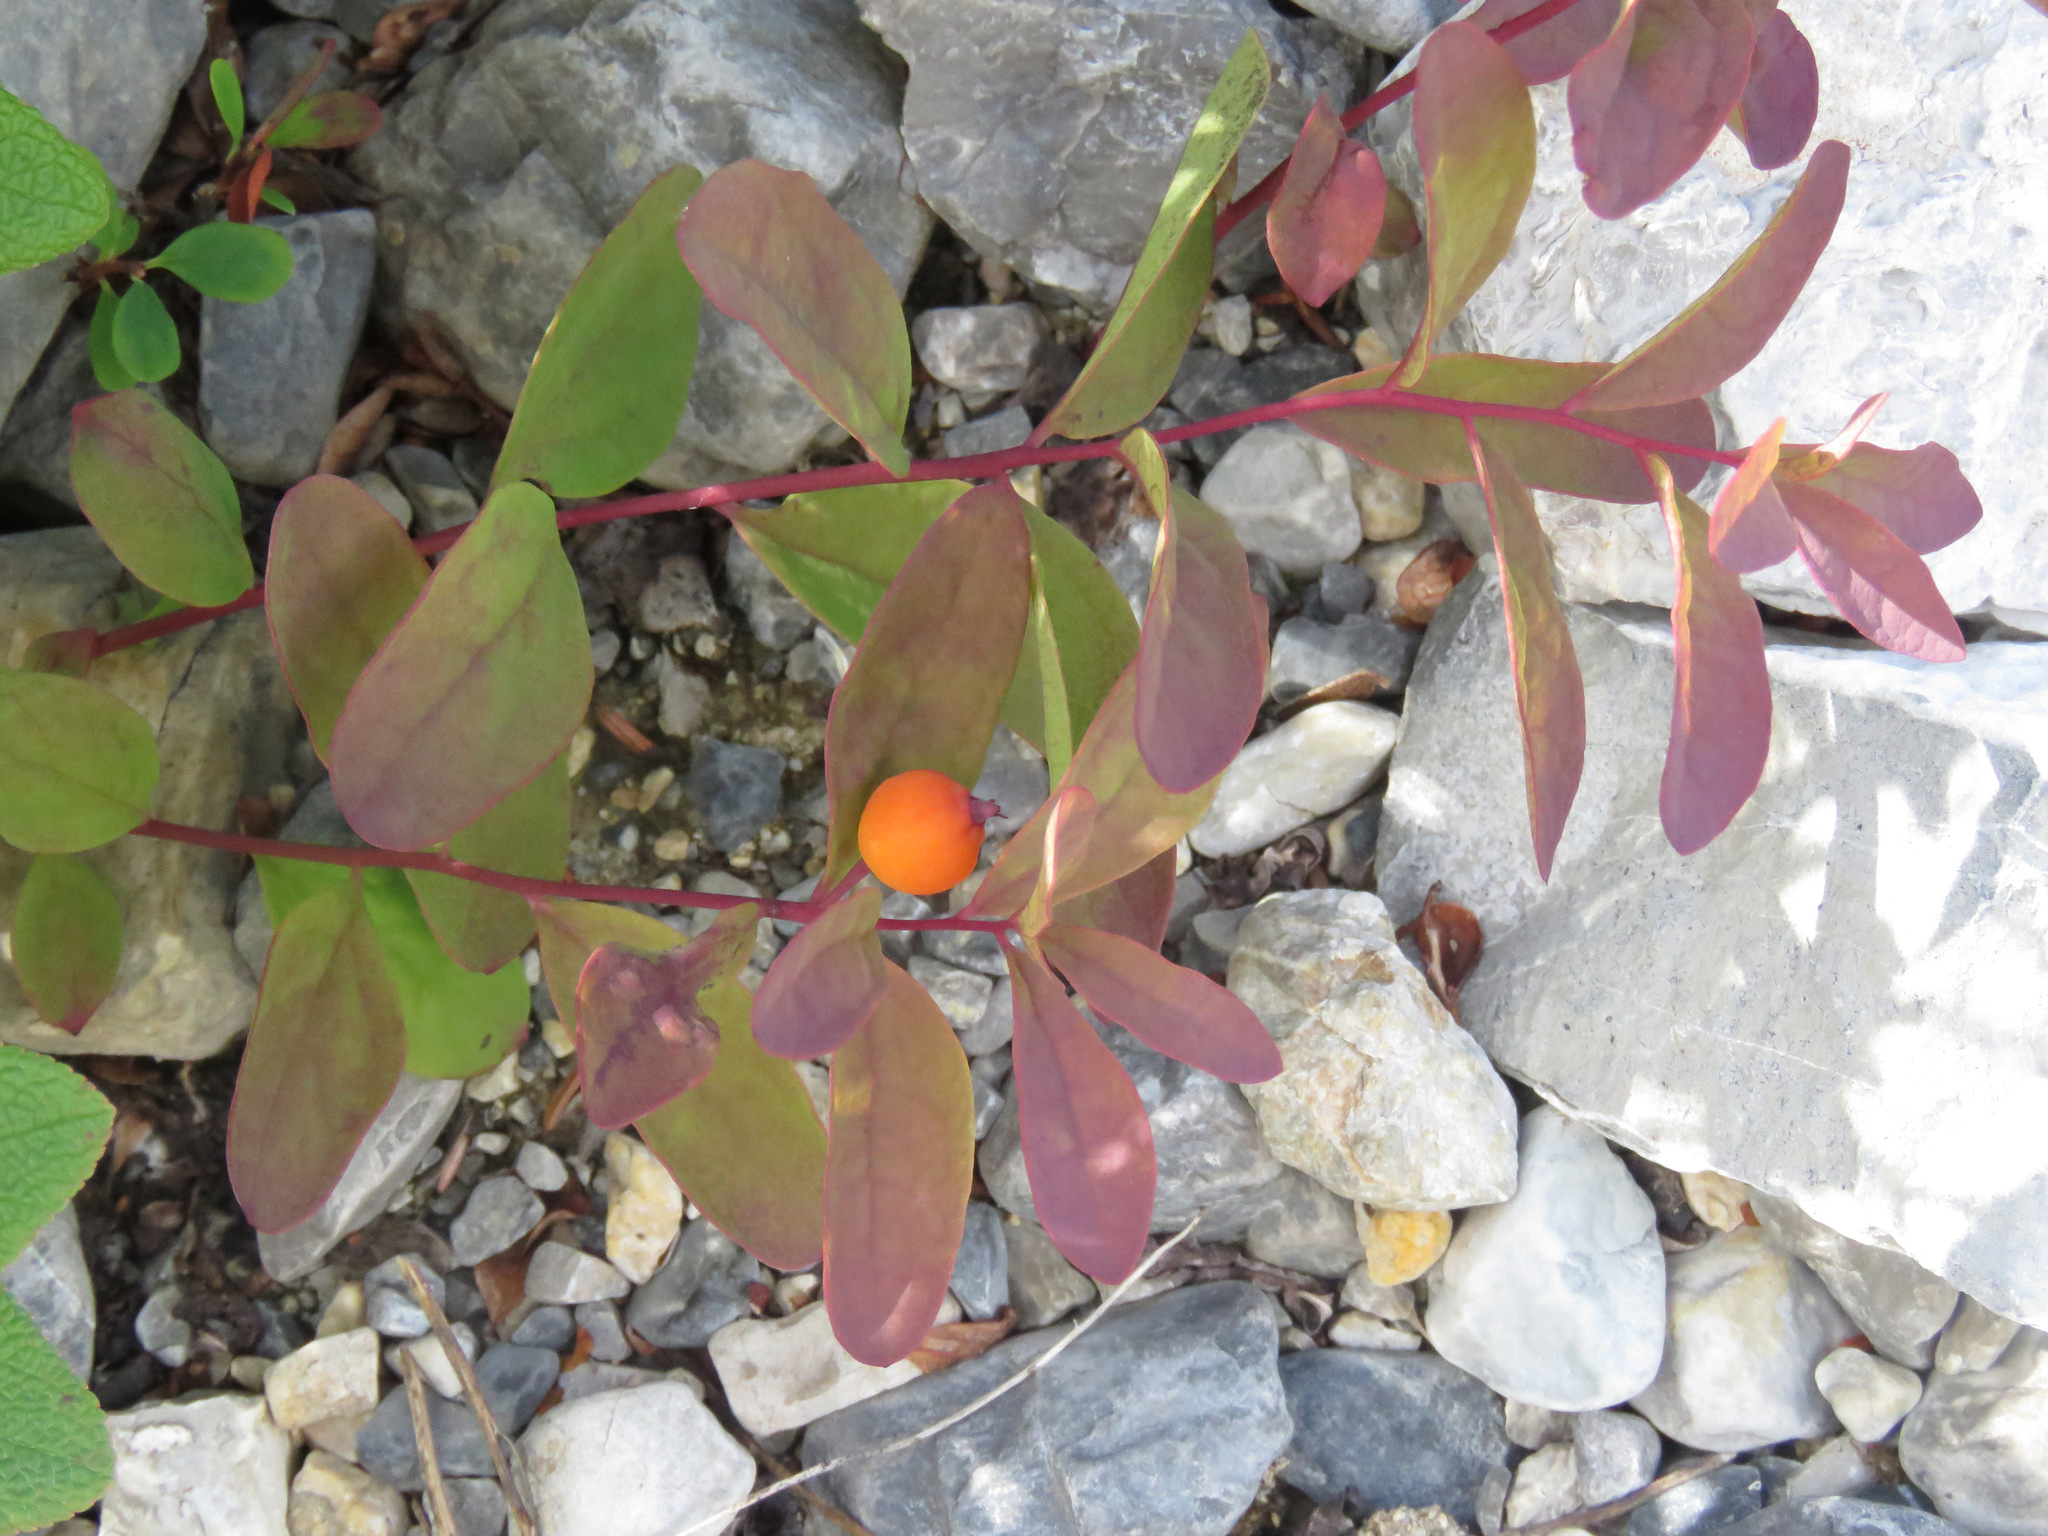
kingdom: Plantae
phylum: Tracheophyta
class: Magnoliopsida
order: Santalales
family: Comandraceae
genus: Geocaulon
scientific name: Geocaulon lividum
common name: Earthberry
